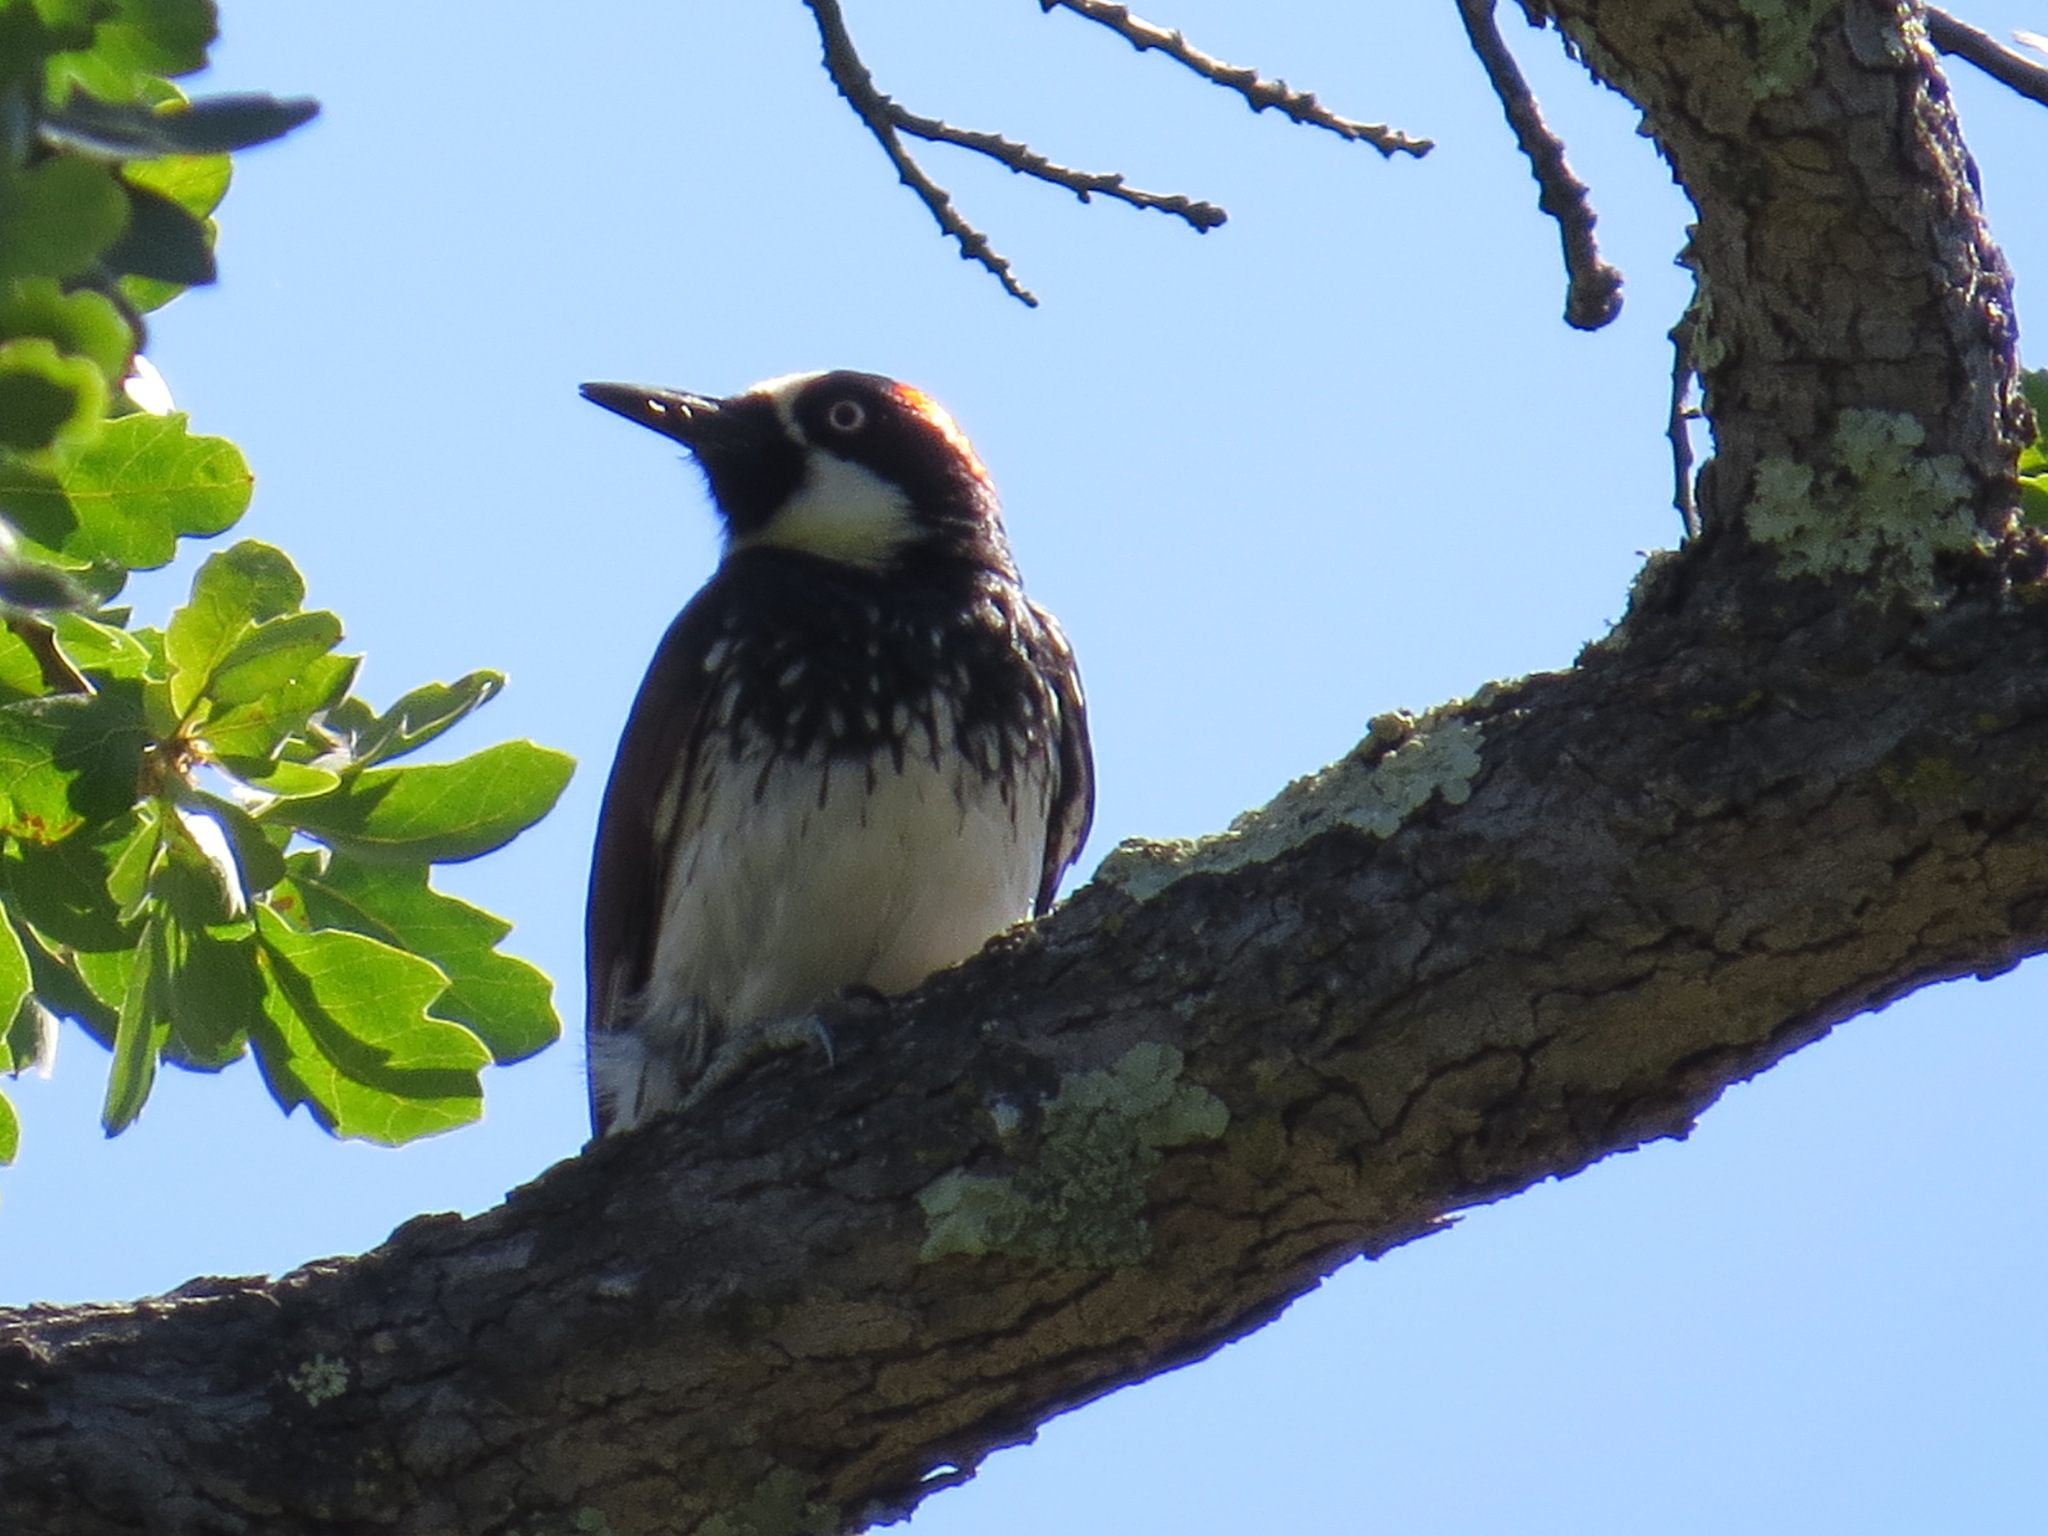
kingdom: Animalia
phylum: Chordata
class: Aves
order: Piciformes
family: Picidae
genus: Melanerpes
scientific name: Melanerpes formicivorus
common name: Acorn woodpecker
